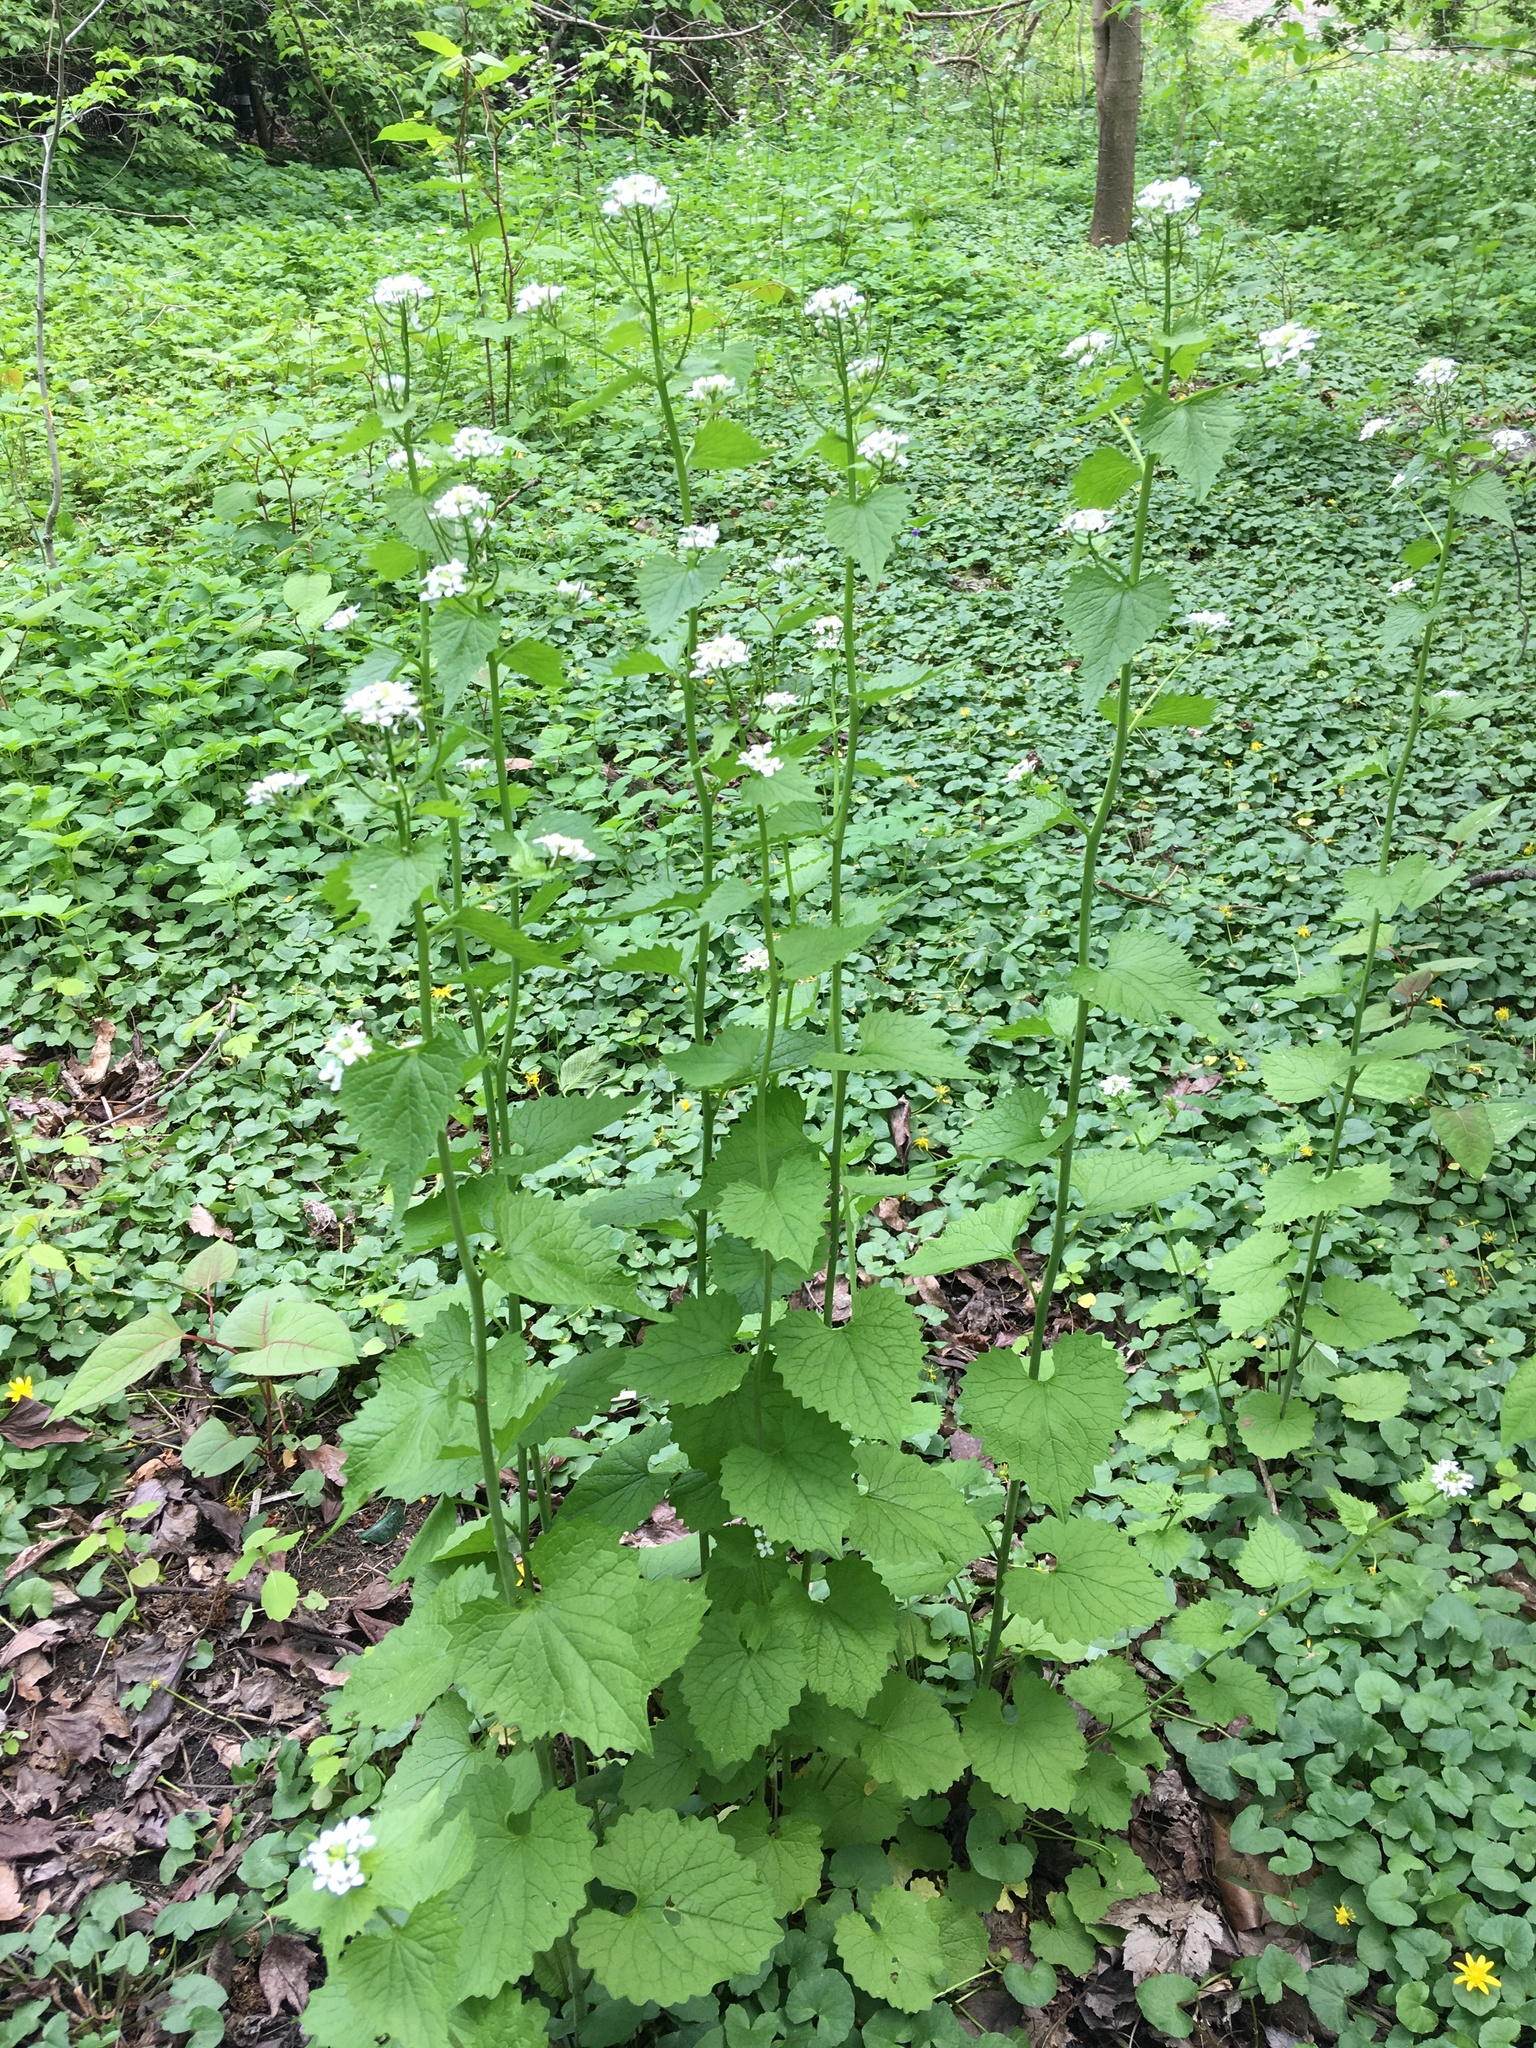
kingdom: Plantae
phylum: Tracheophyta
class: Magnoliopsida
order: Brassicales
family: Brassicaceae
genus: Alliaria
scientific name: Alliaria petiolata
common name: Garlic mustard
